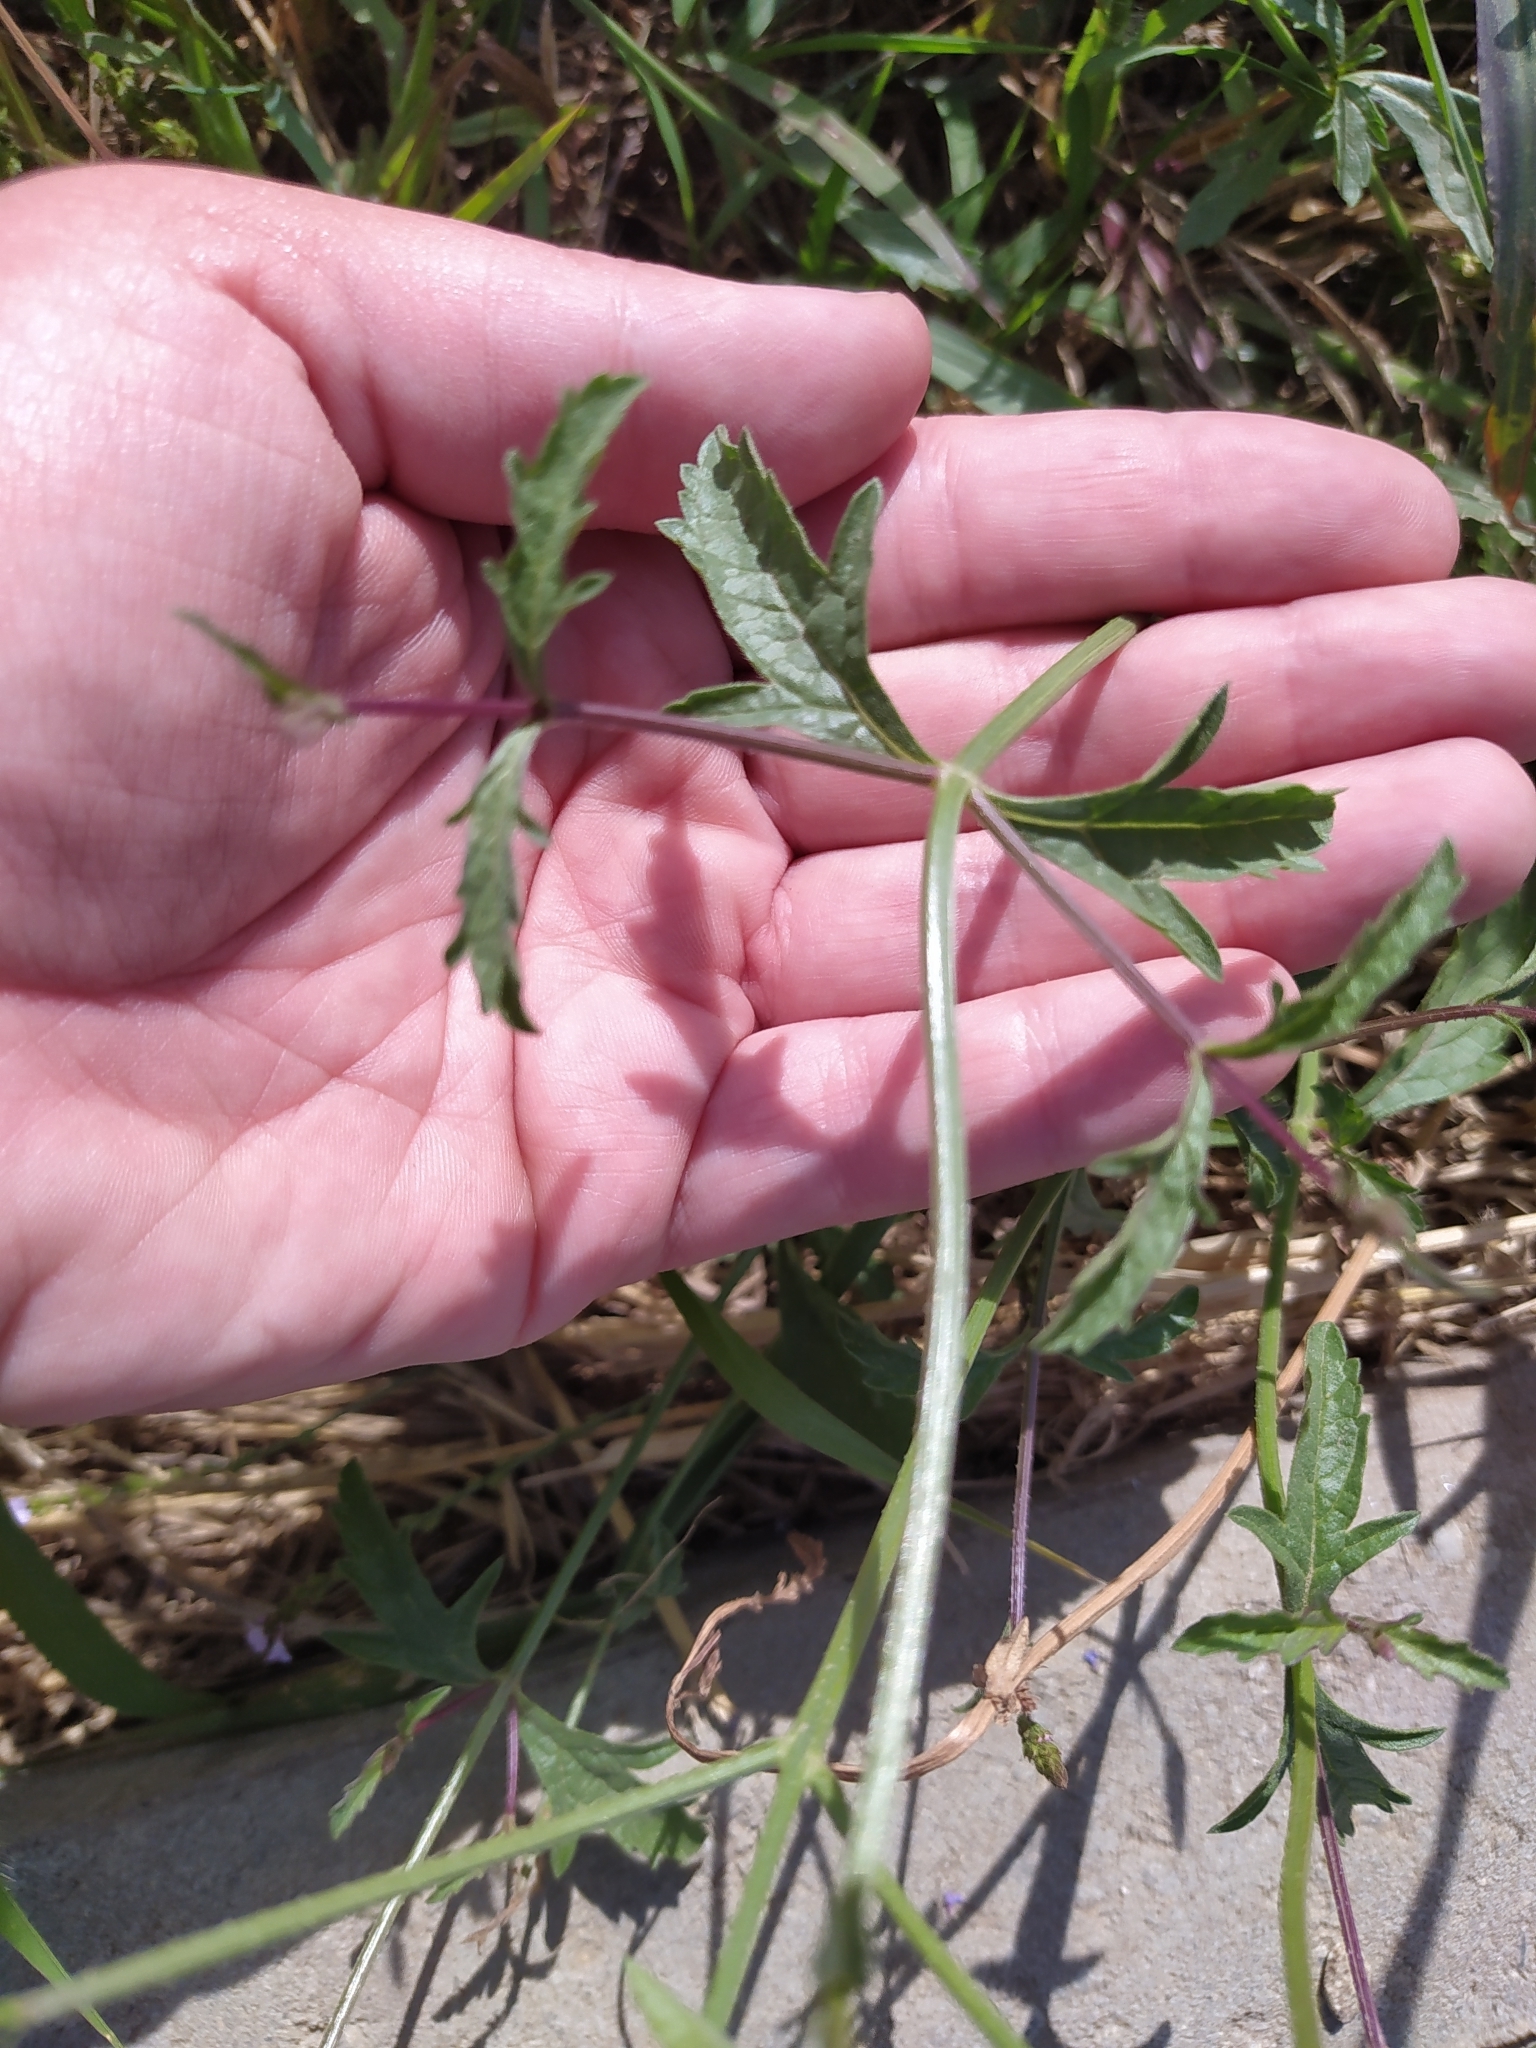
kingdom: Plantae
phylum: Tracheophyta
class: Magnoliopsida
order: Lamiales
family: Verbenaceae
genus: Verbena
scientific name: Verbena officinalis
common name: Vervain
